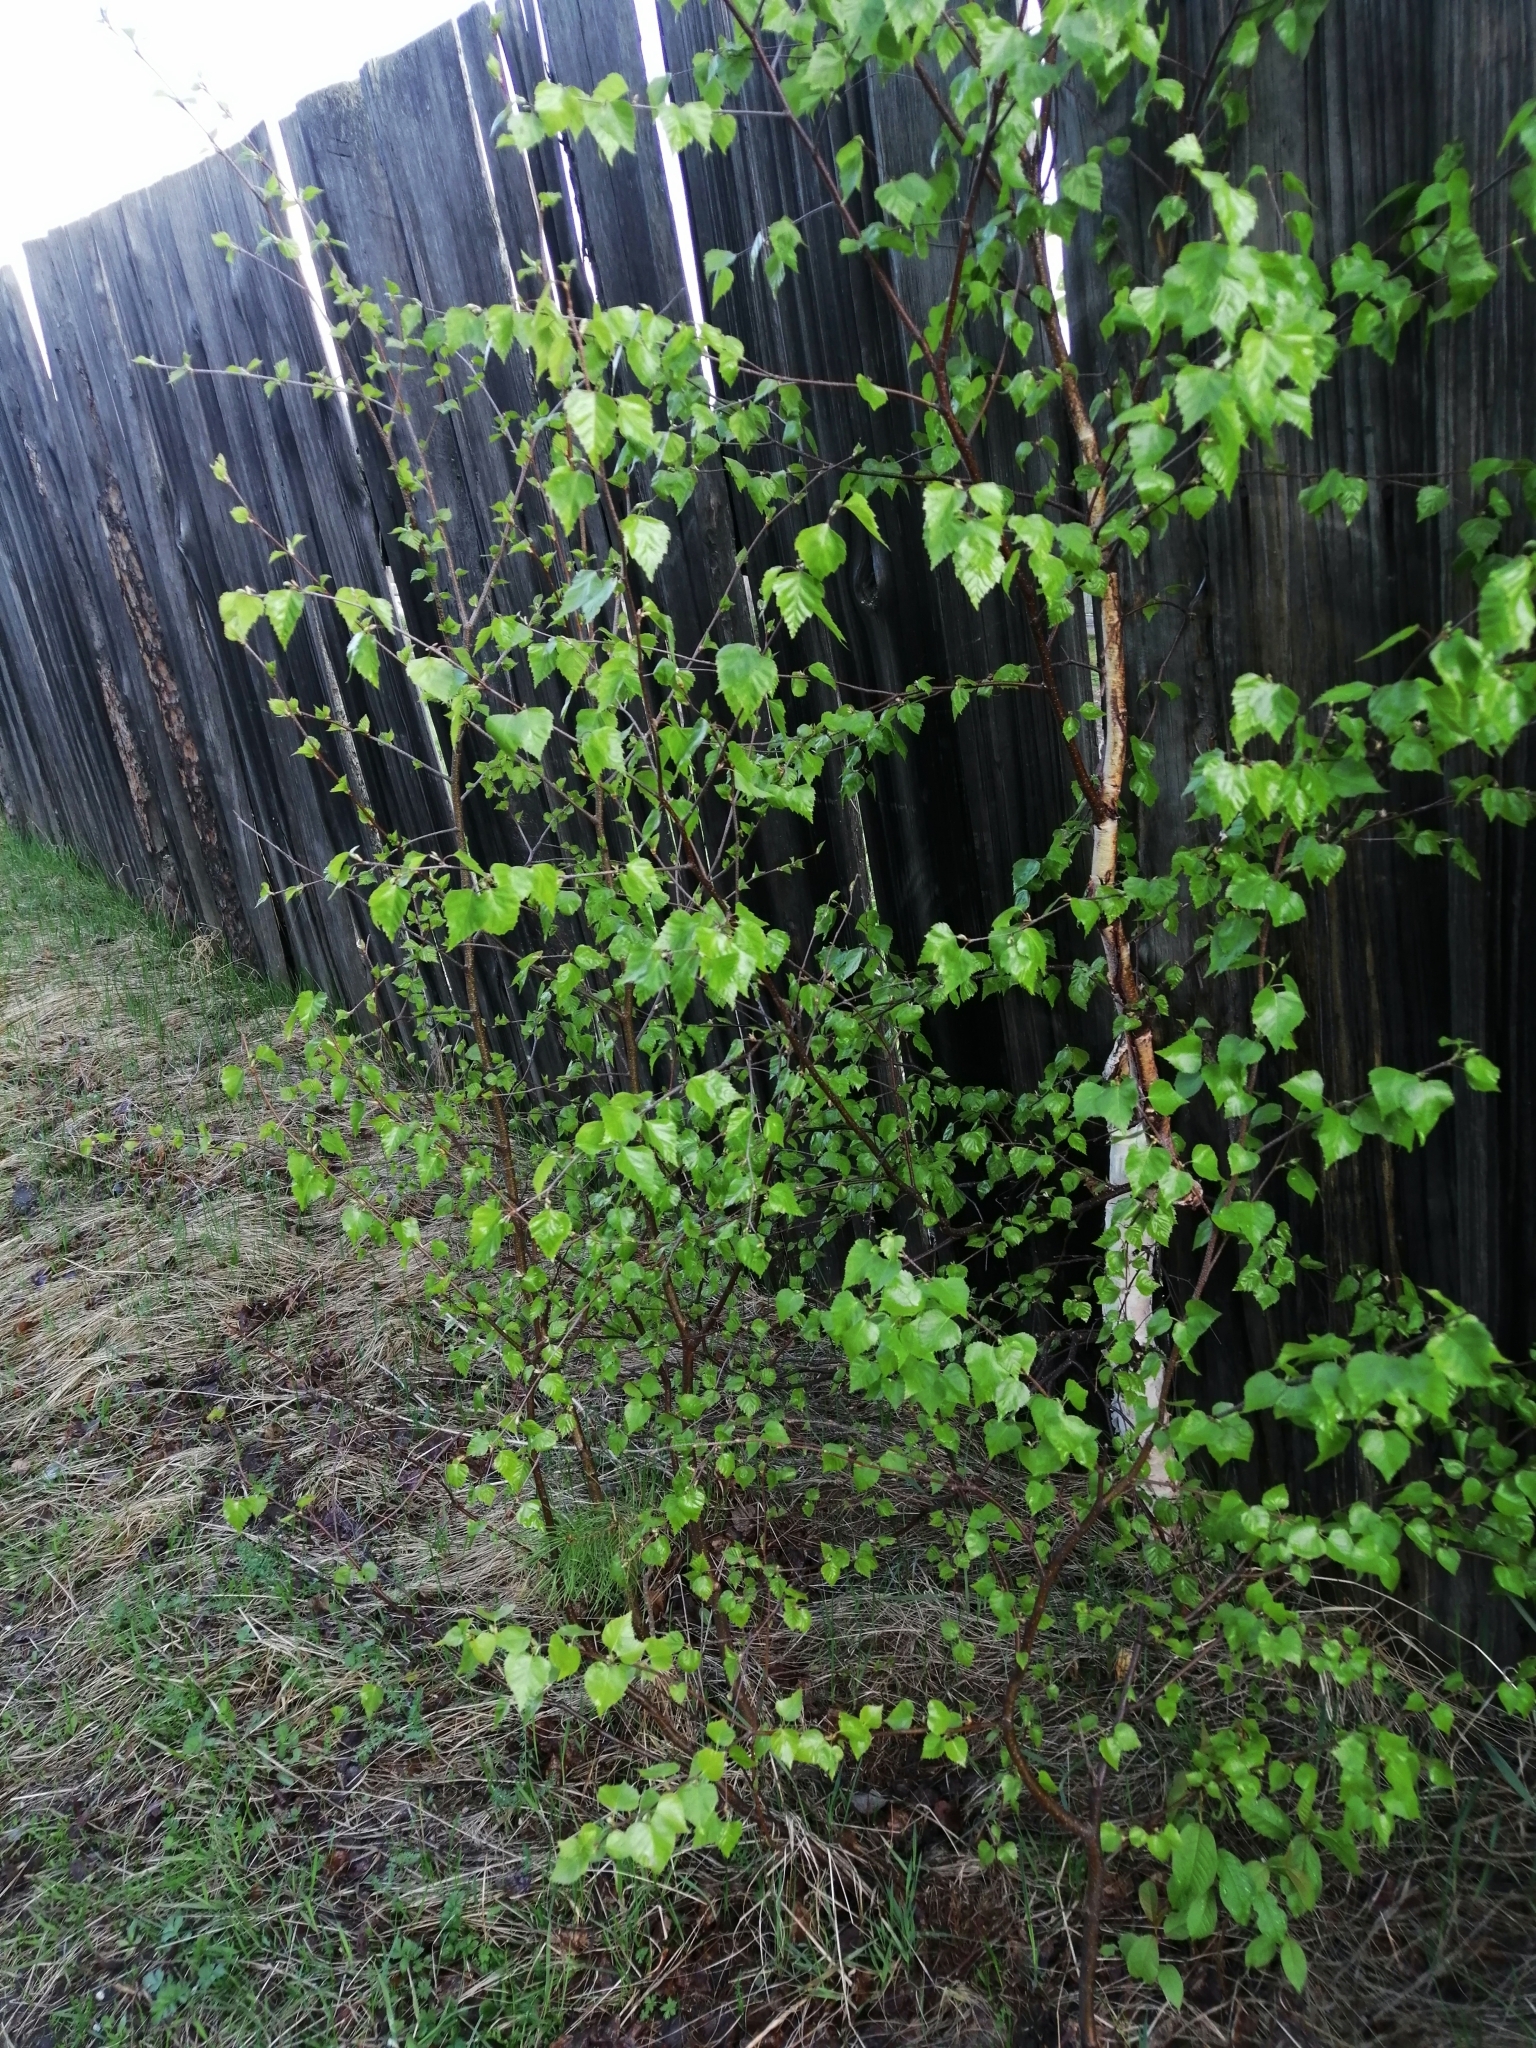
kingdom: Plantae
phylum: Tracheophyta
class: Magnoliopsida
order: Fagales
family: Betulaceae
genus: Betula
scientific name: Betula pendula
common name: Silver birch
